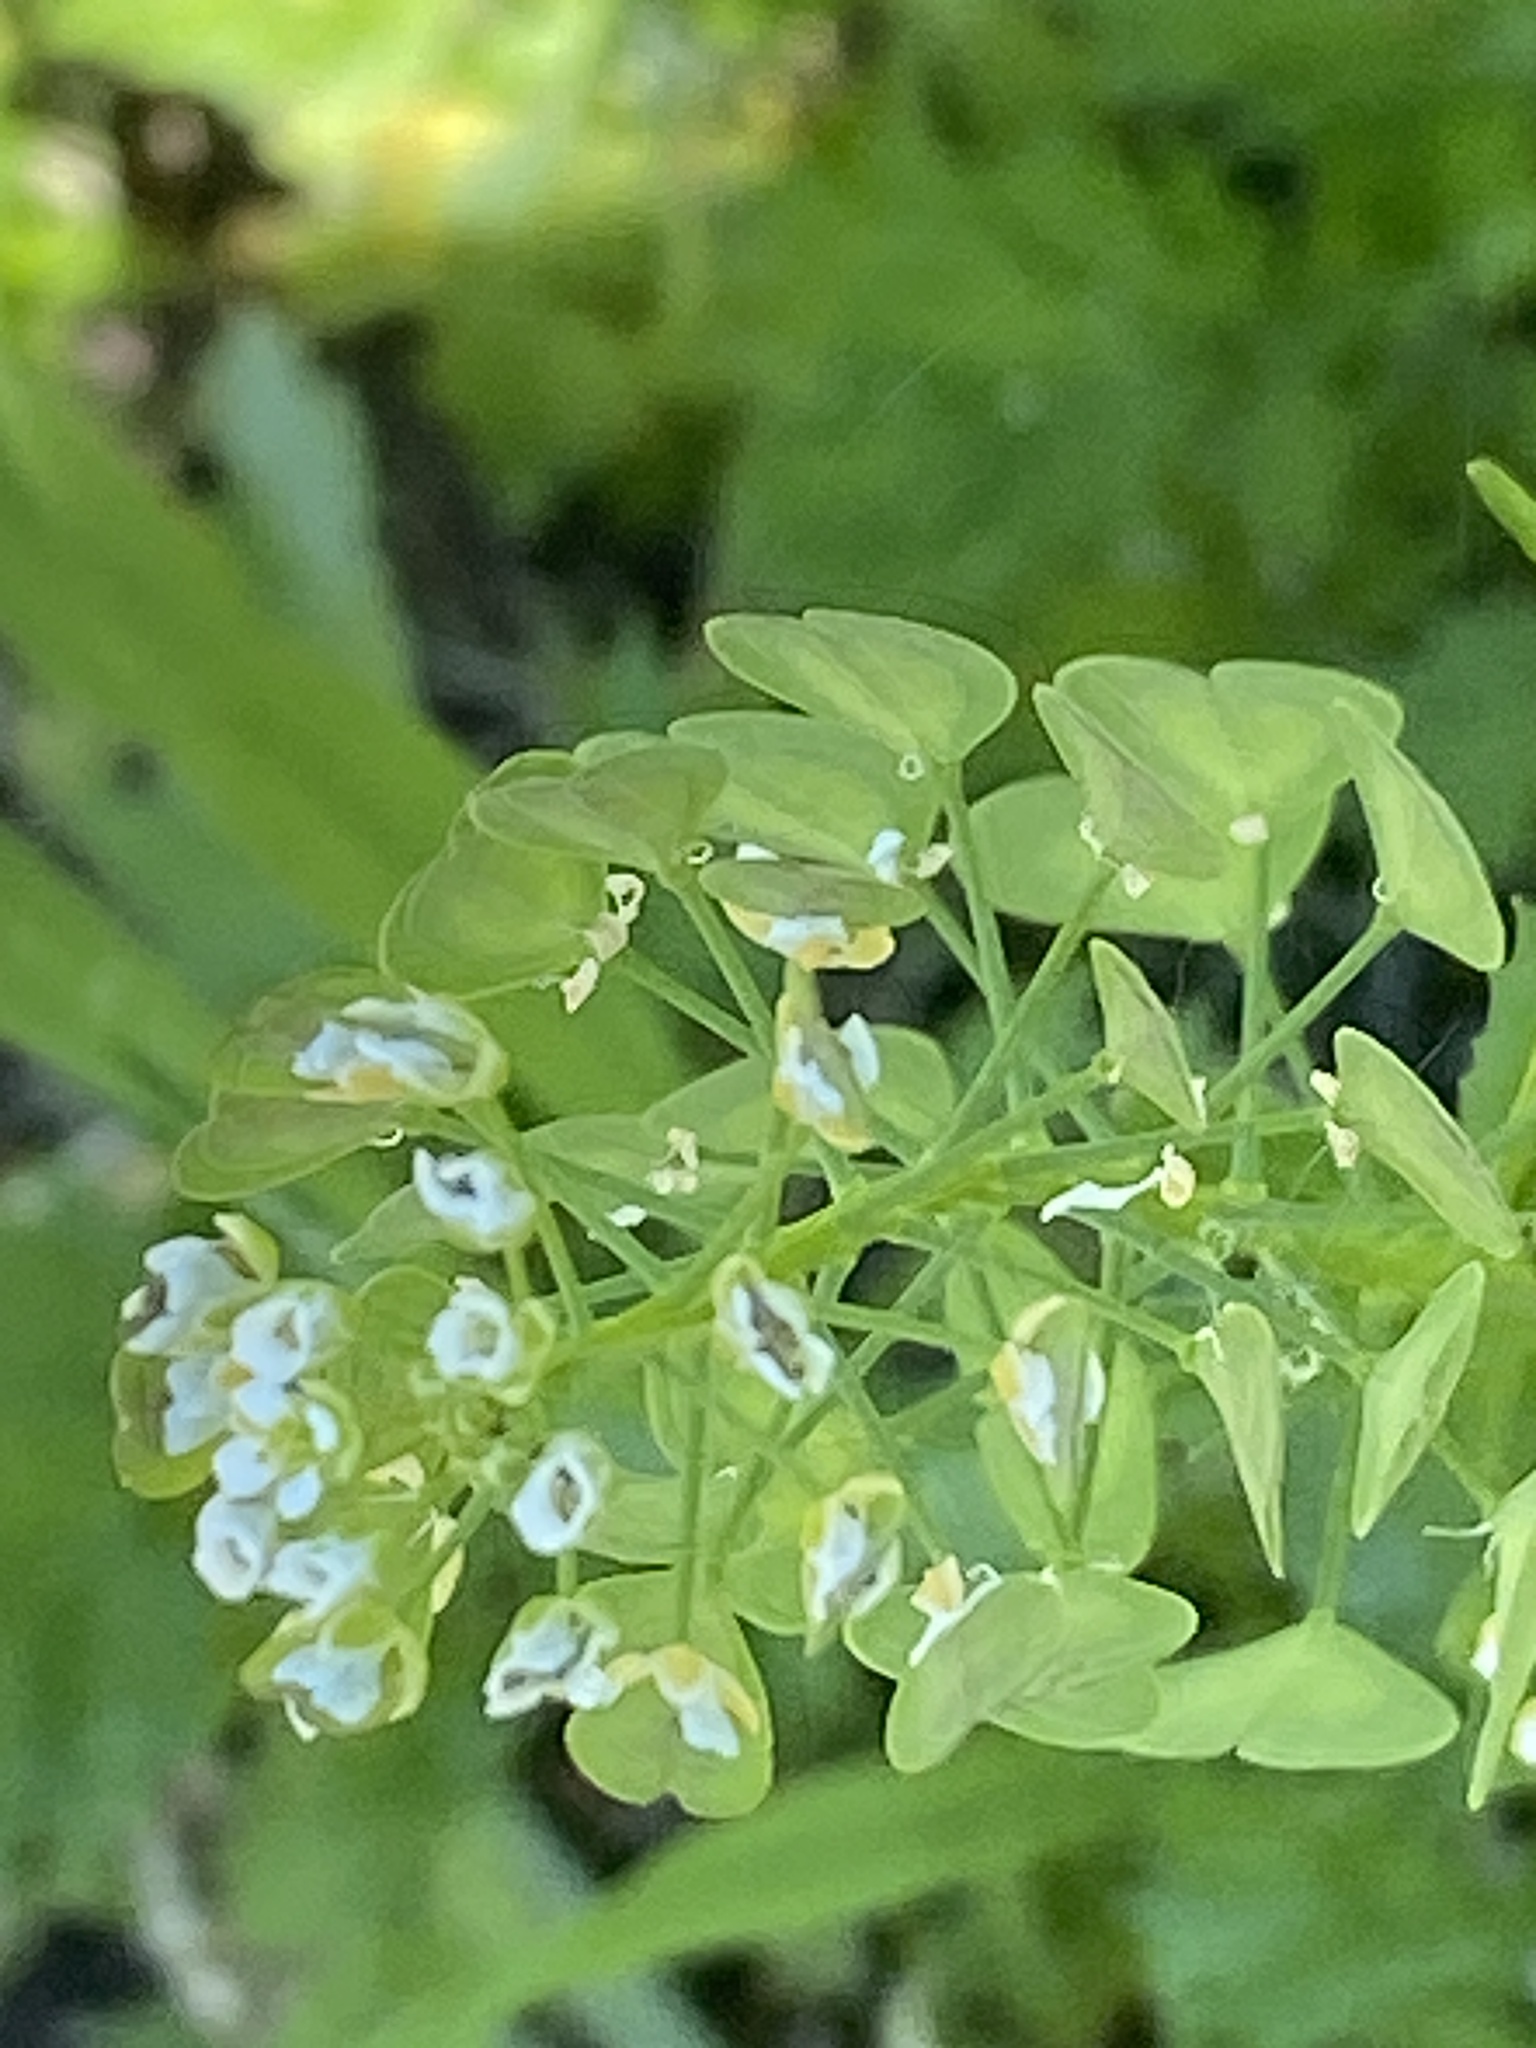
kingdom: Plantae
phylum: Tracheophyta
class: Magnoliopsida
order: Brassicales
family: Brassicaceae
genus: Thlaspi
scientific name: Thlaspi arvense
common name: Field pennycress
